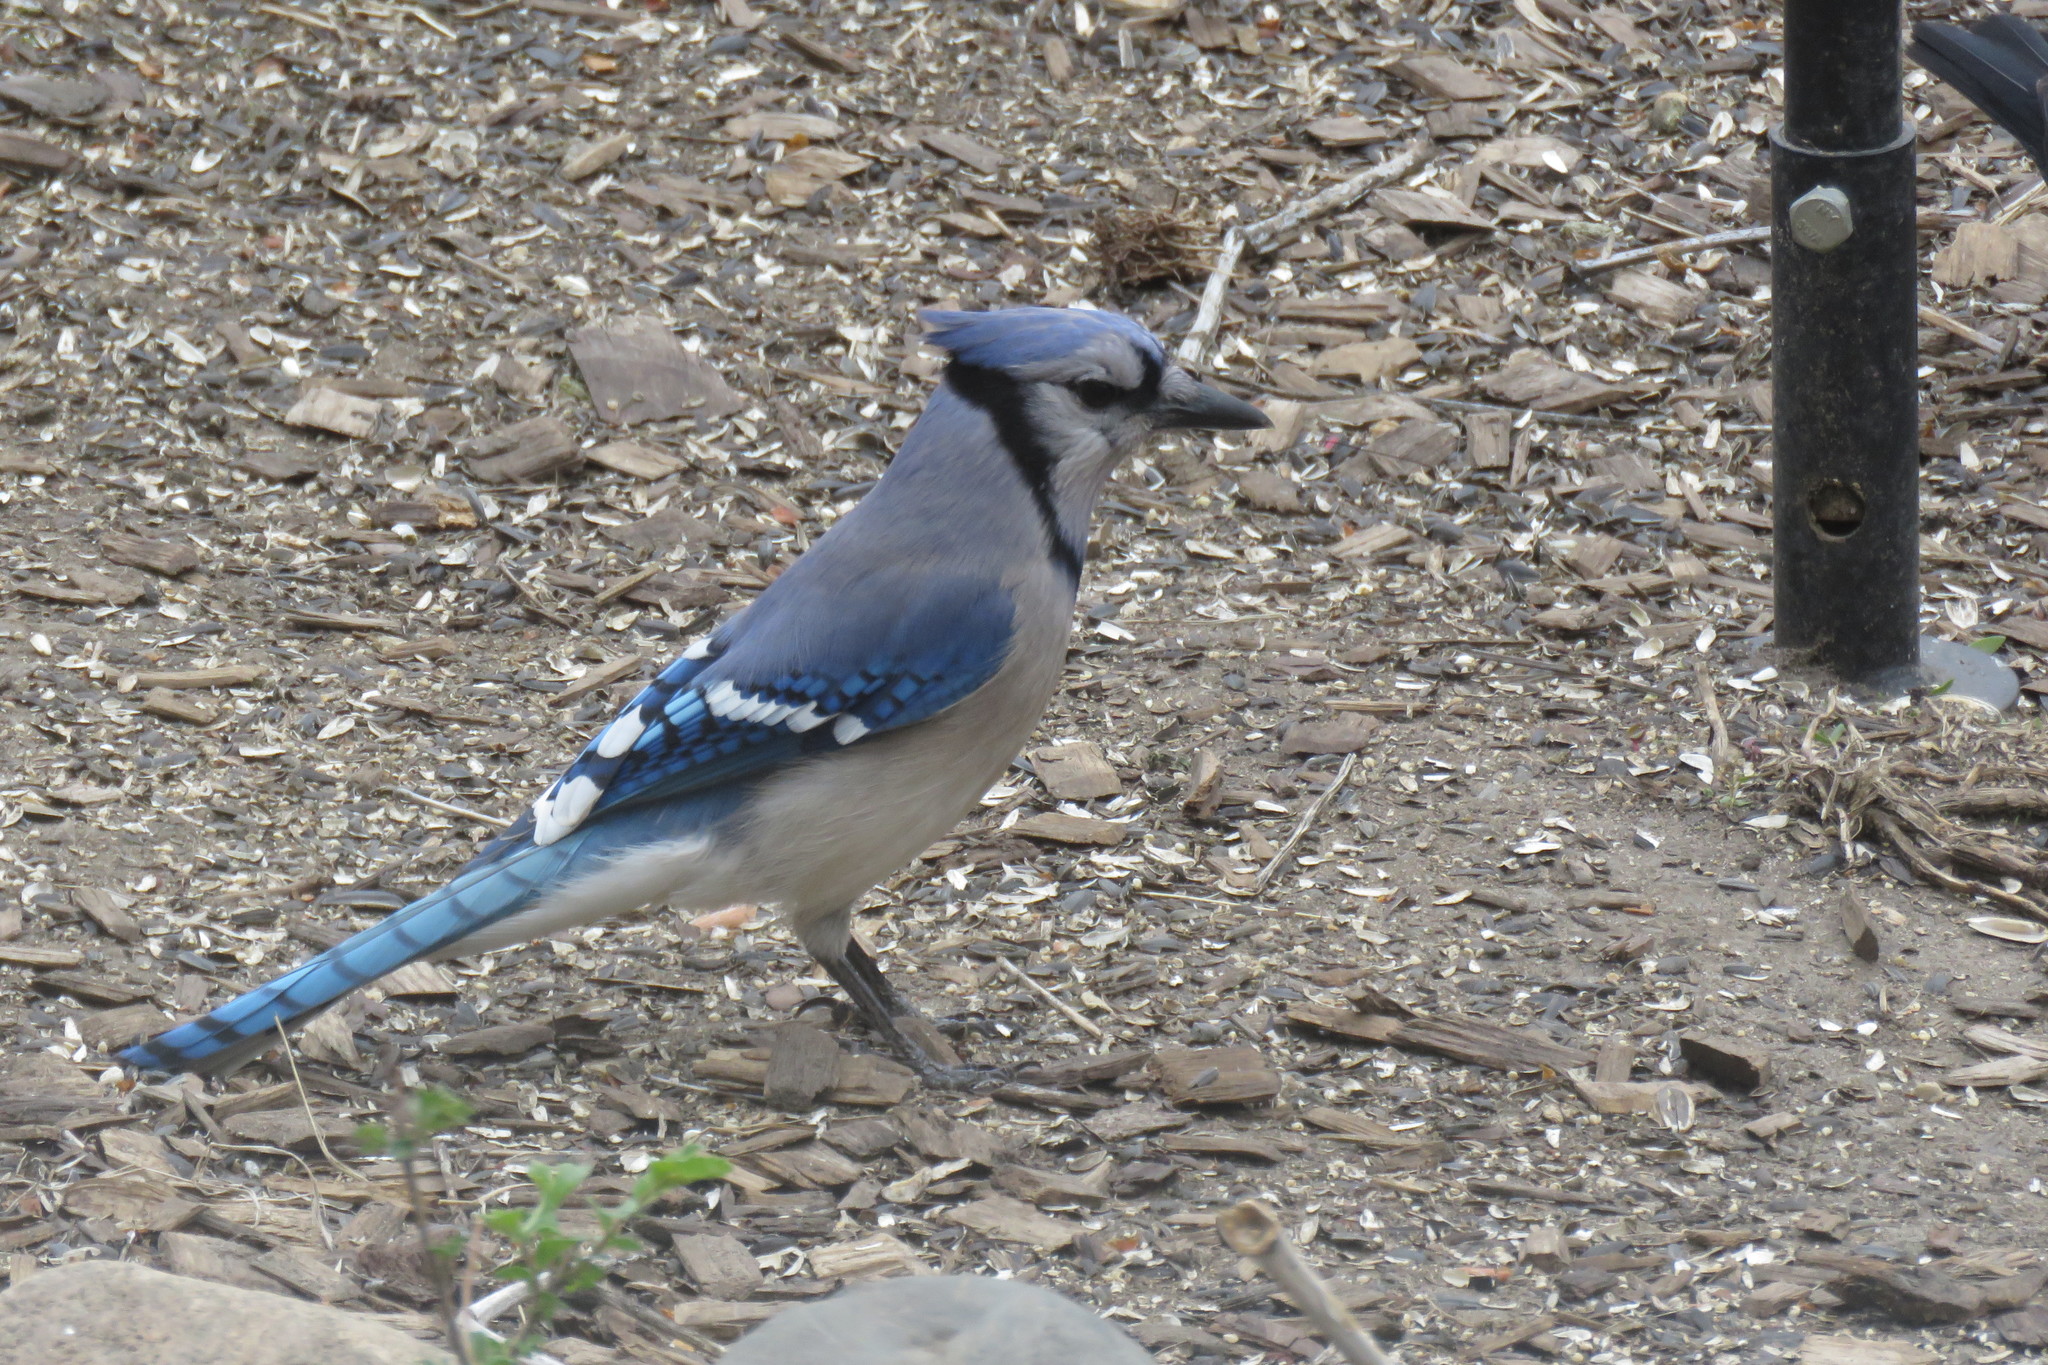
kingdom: Animalia
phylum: Chordata
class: Aves
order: Passeriformes
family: Corvidae
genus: Cyanocitta
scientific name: Cyanocitta cristata
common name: Blue jay
